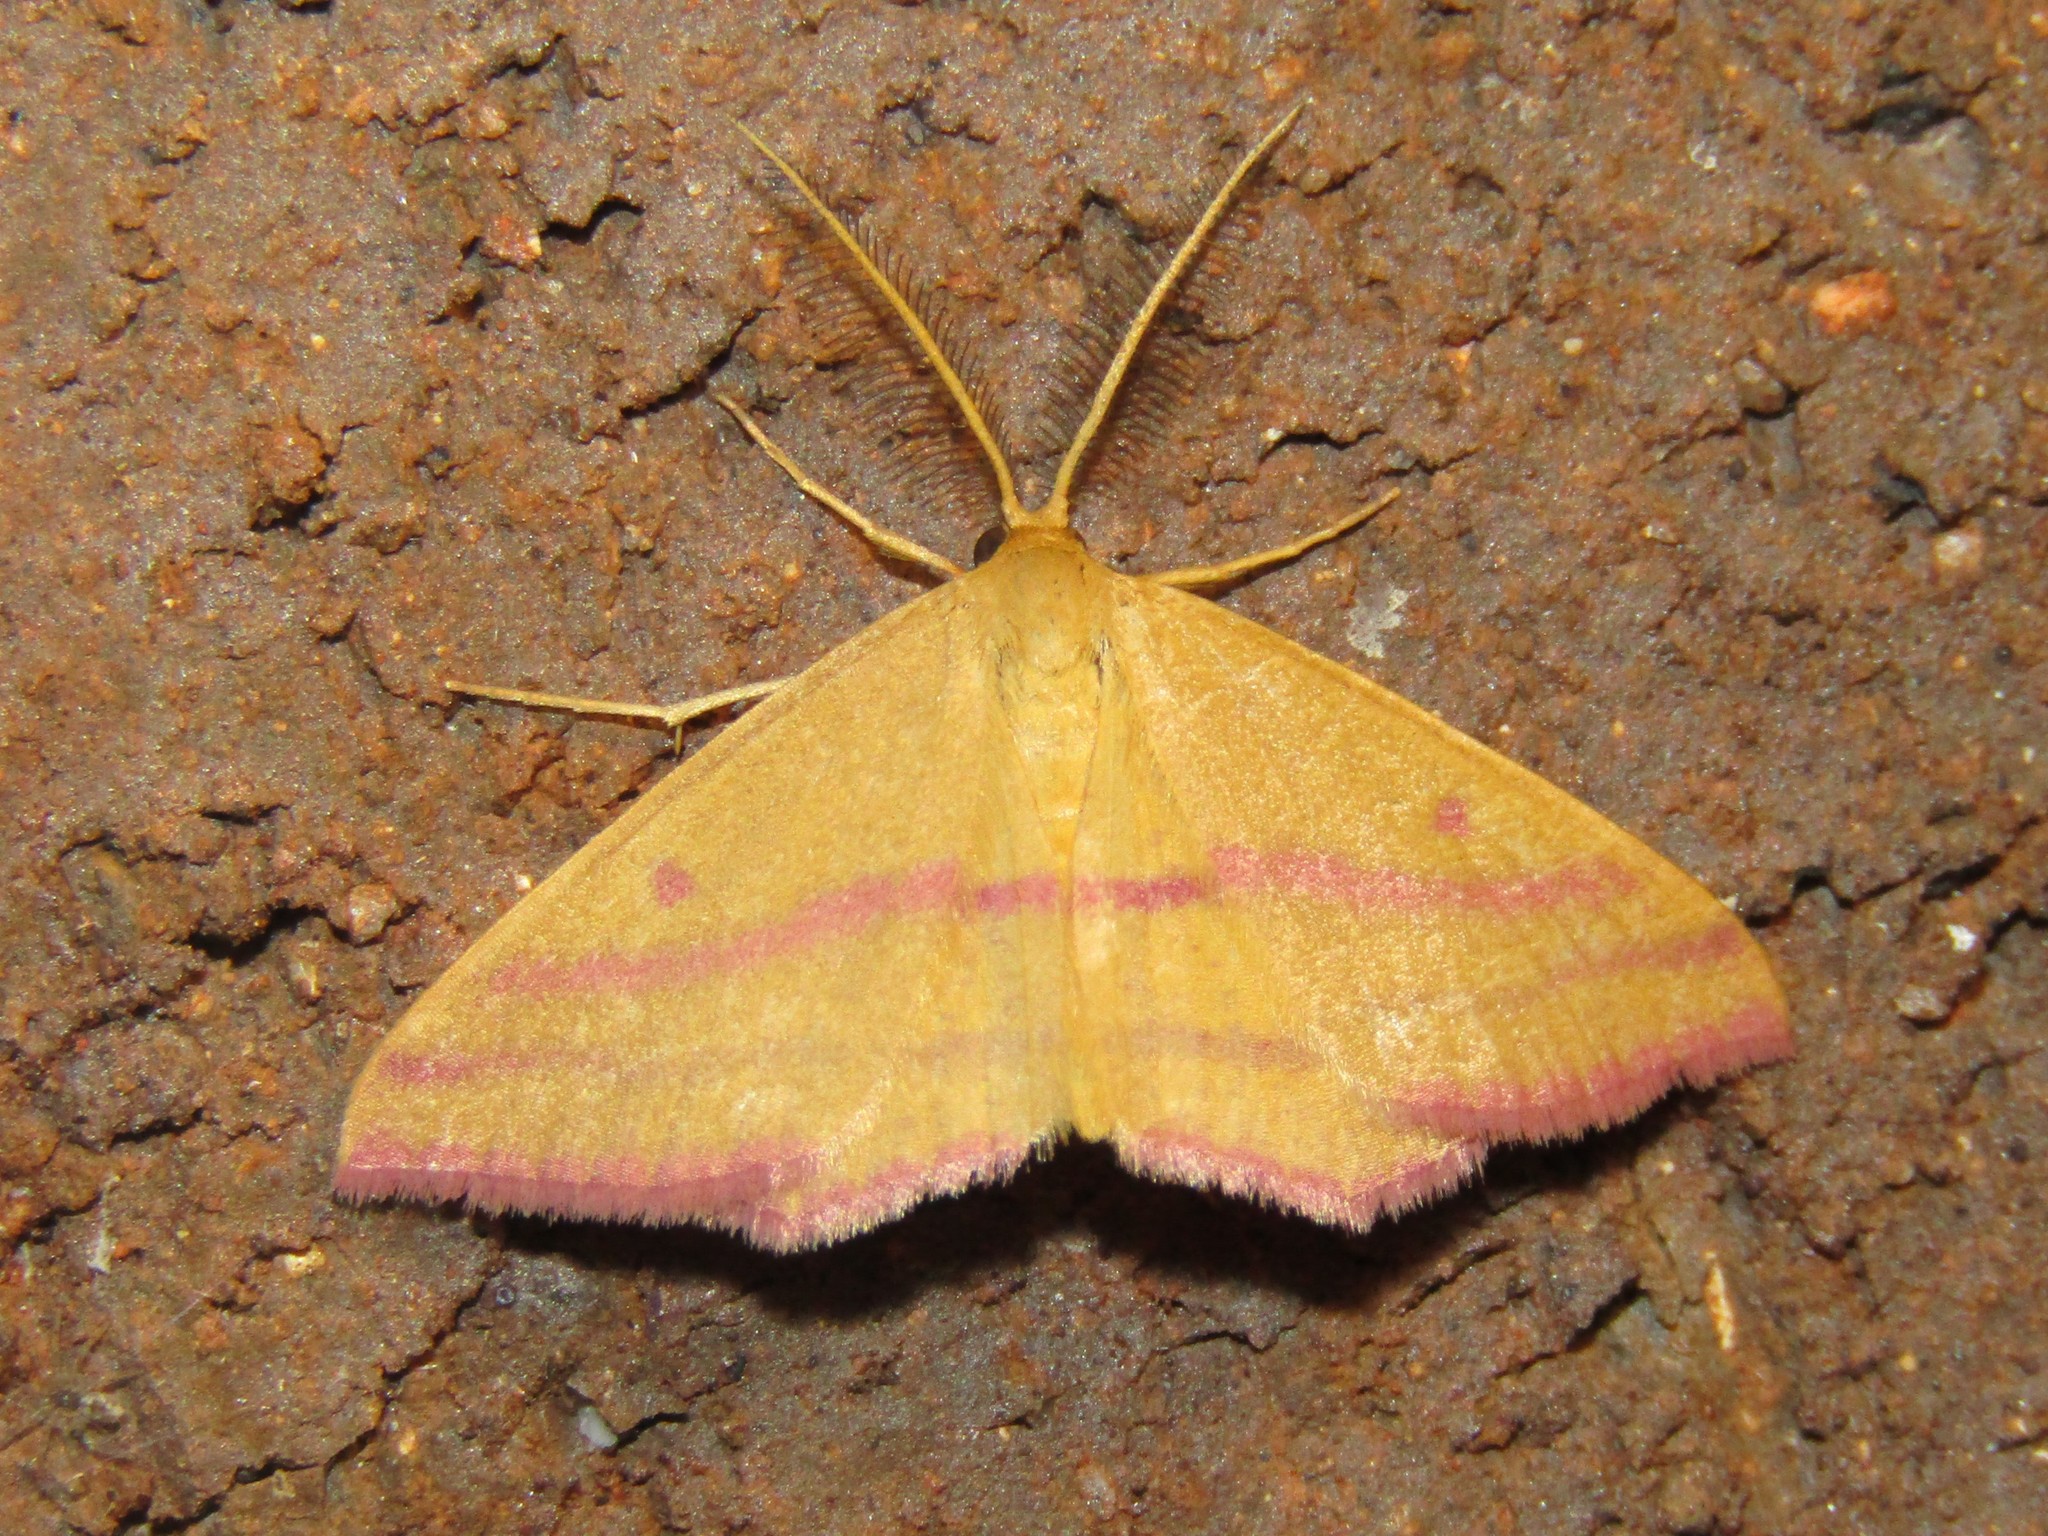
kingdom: Animalia
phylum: Arthropoda
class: Insecta
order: Lepidoptera
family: Geometridae
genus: Haematopis
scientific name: Haematopis grataria
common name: Chickweed geometer
